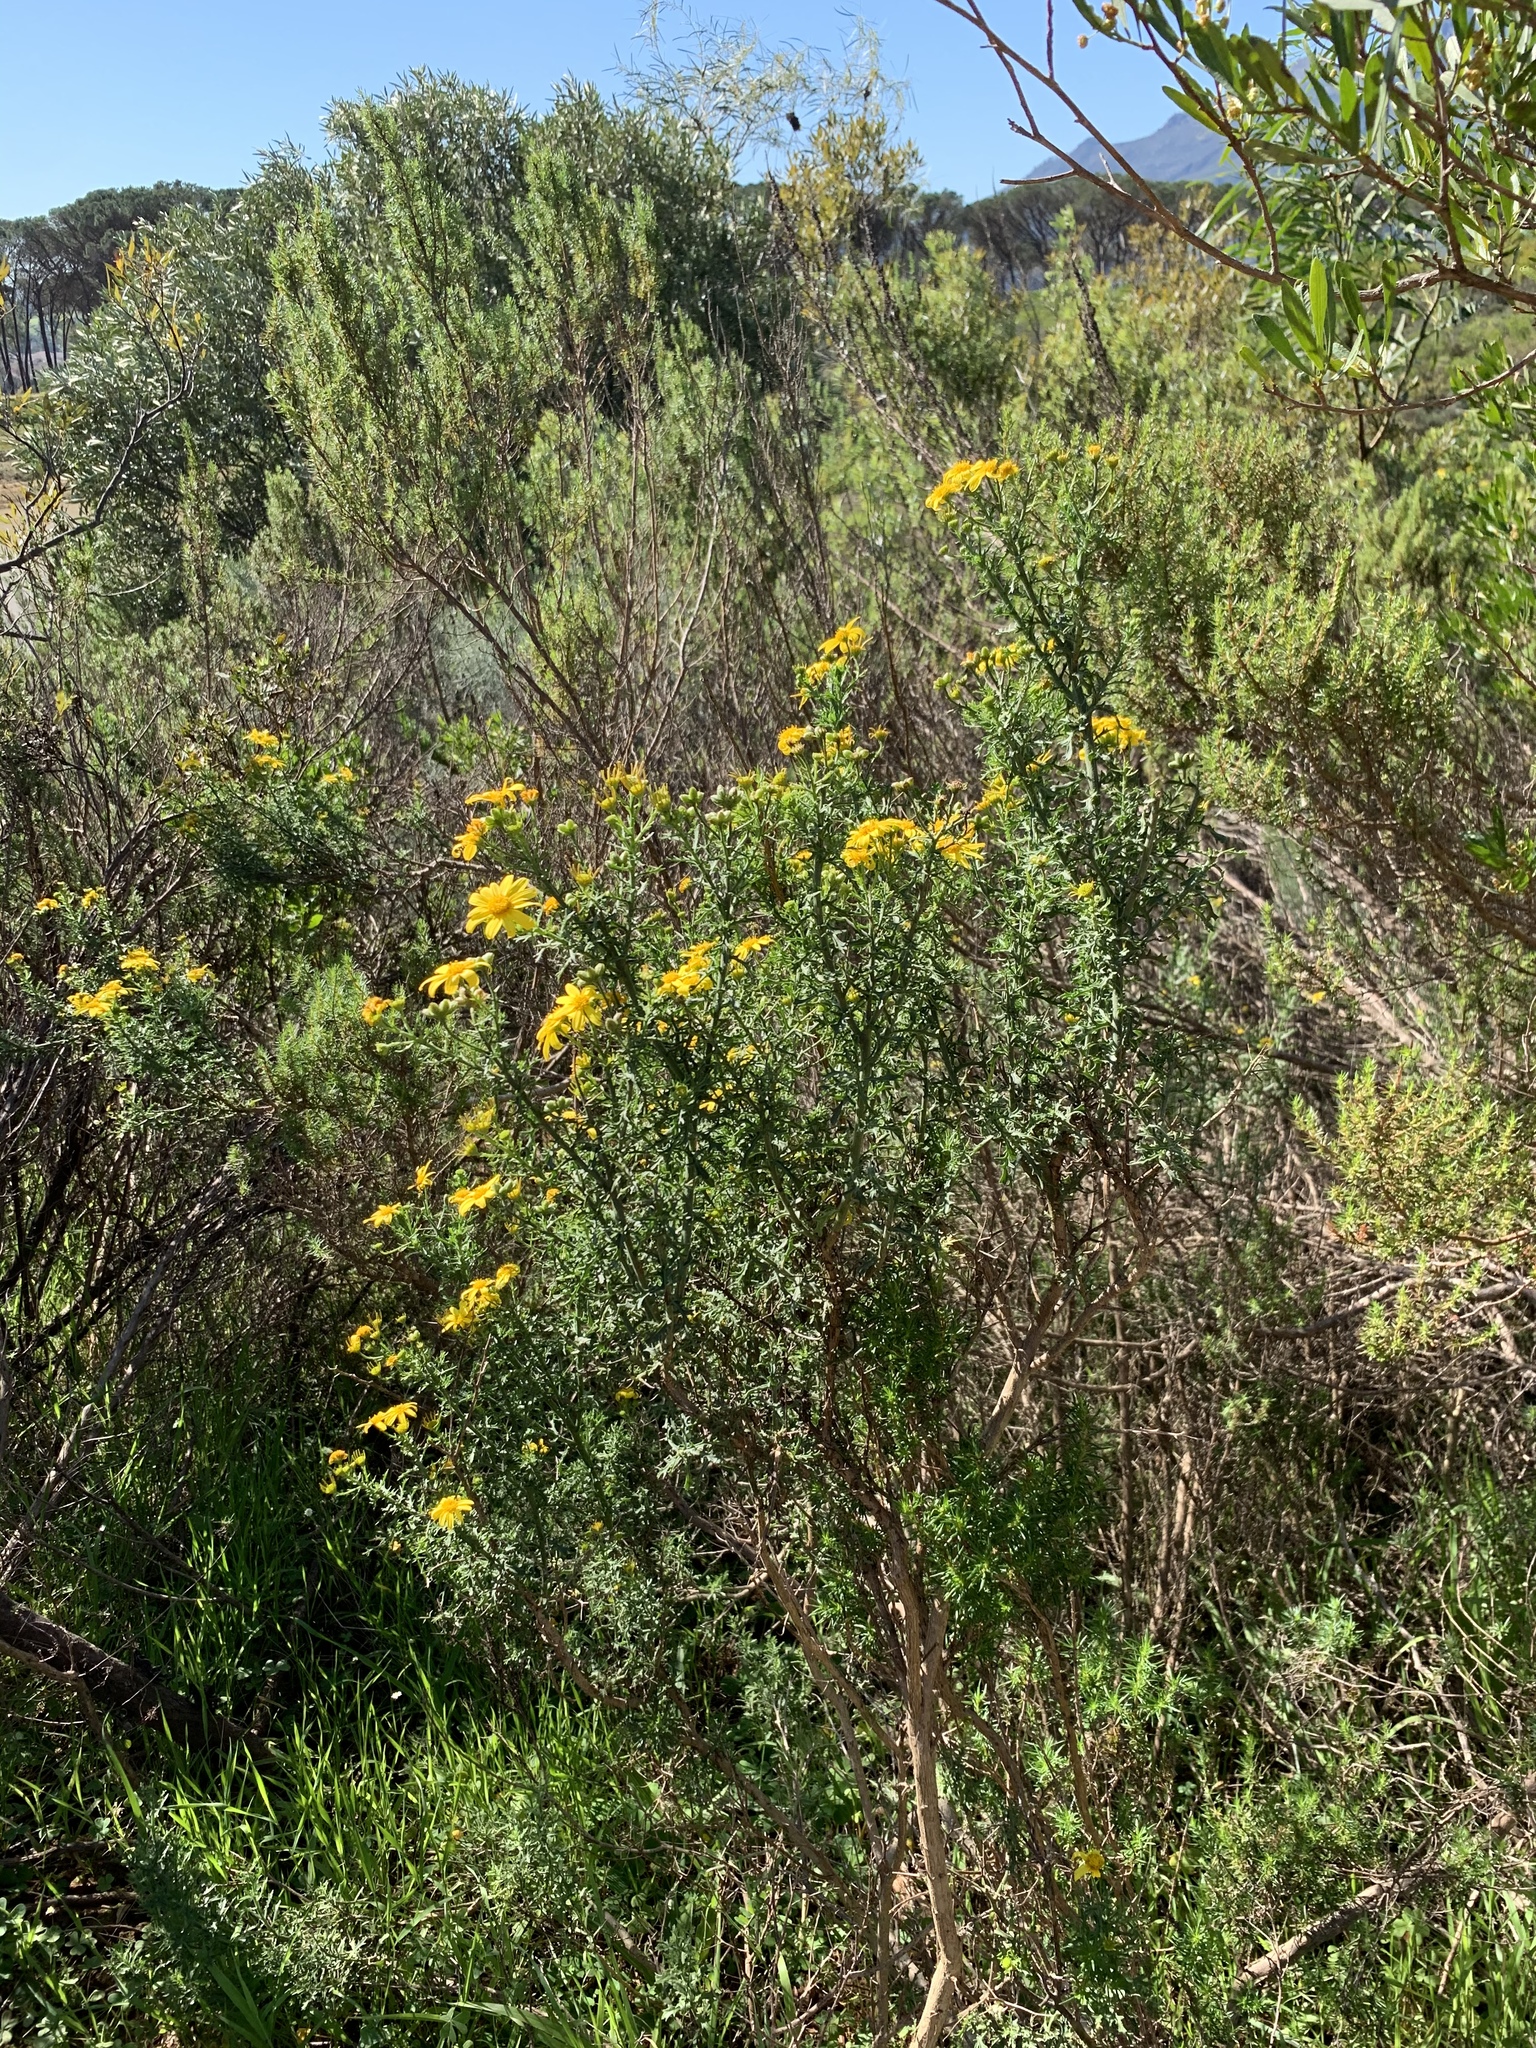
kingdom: Plantae
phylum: Tracheophyta
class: Magnoliopsida
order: Asterales
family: Asteraceae
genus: Osteospermum
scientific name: Osteospermum spinosum
